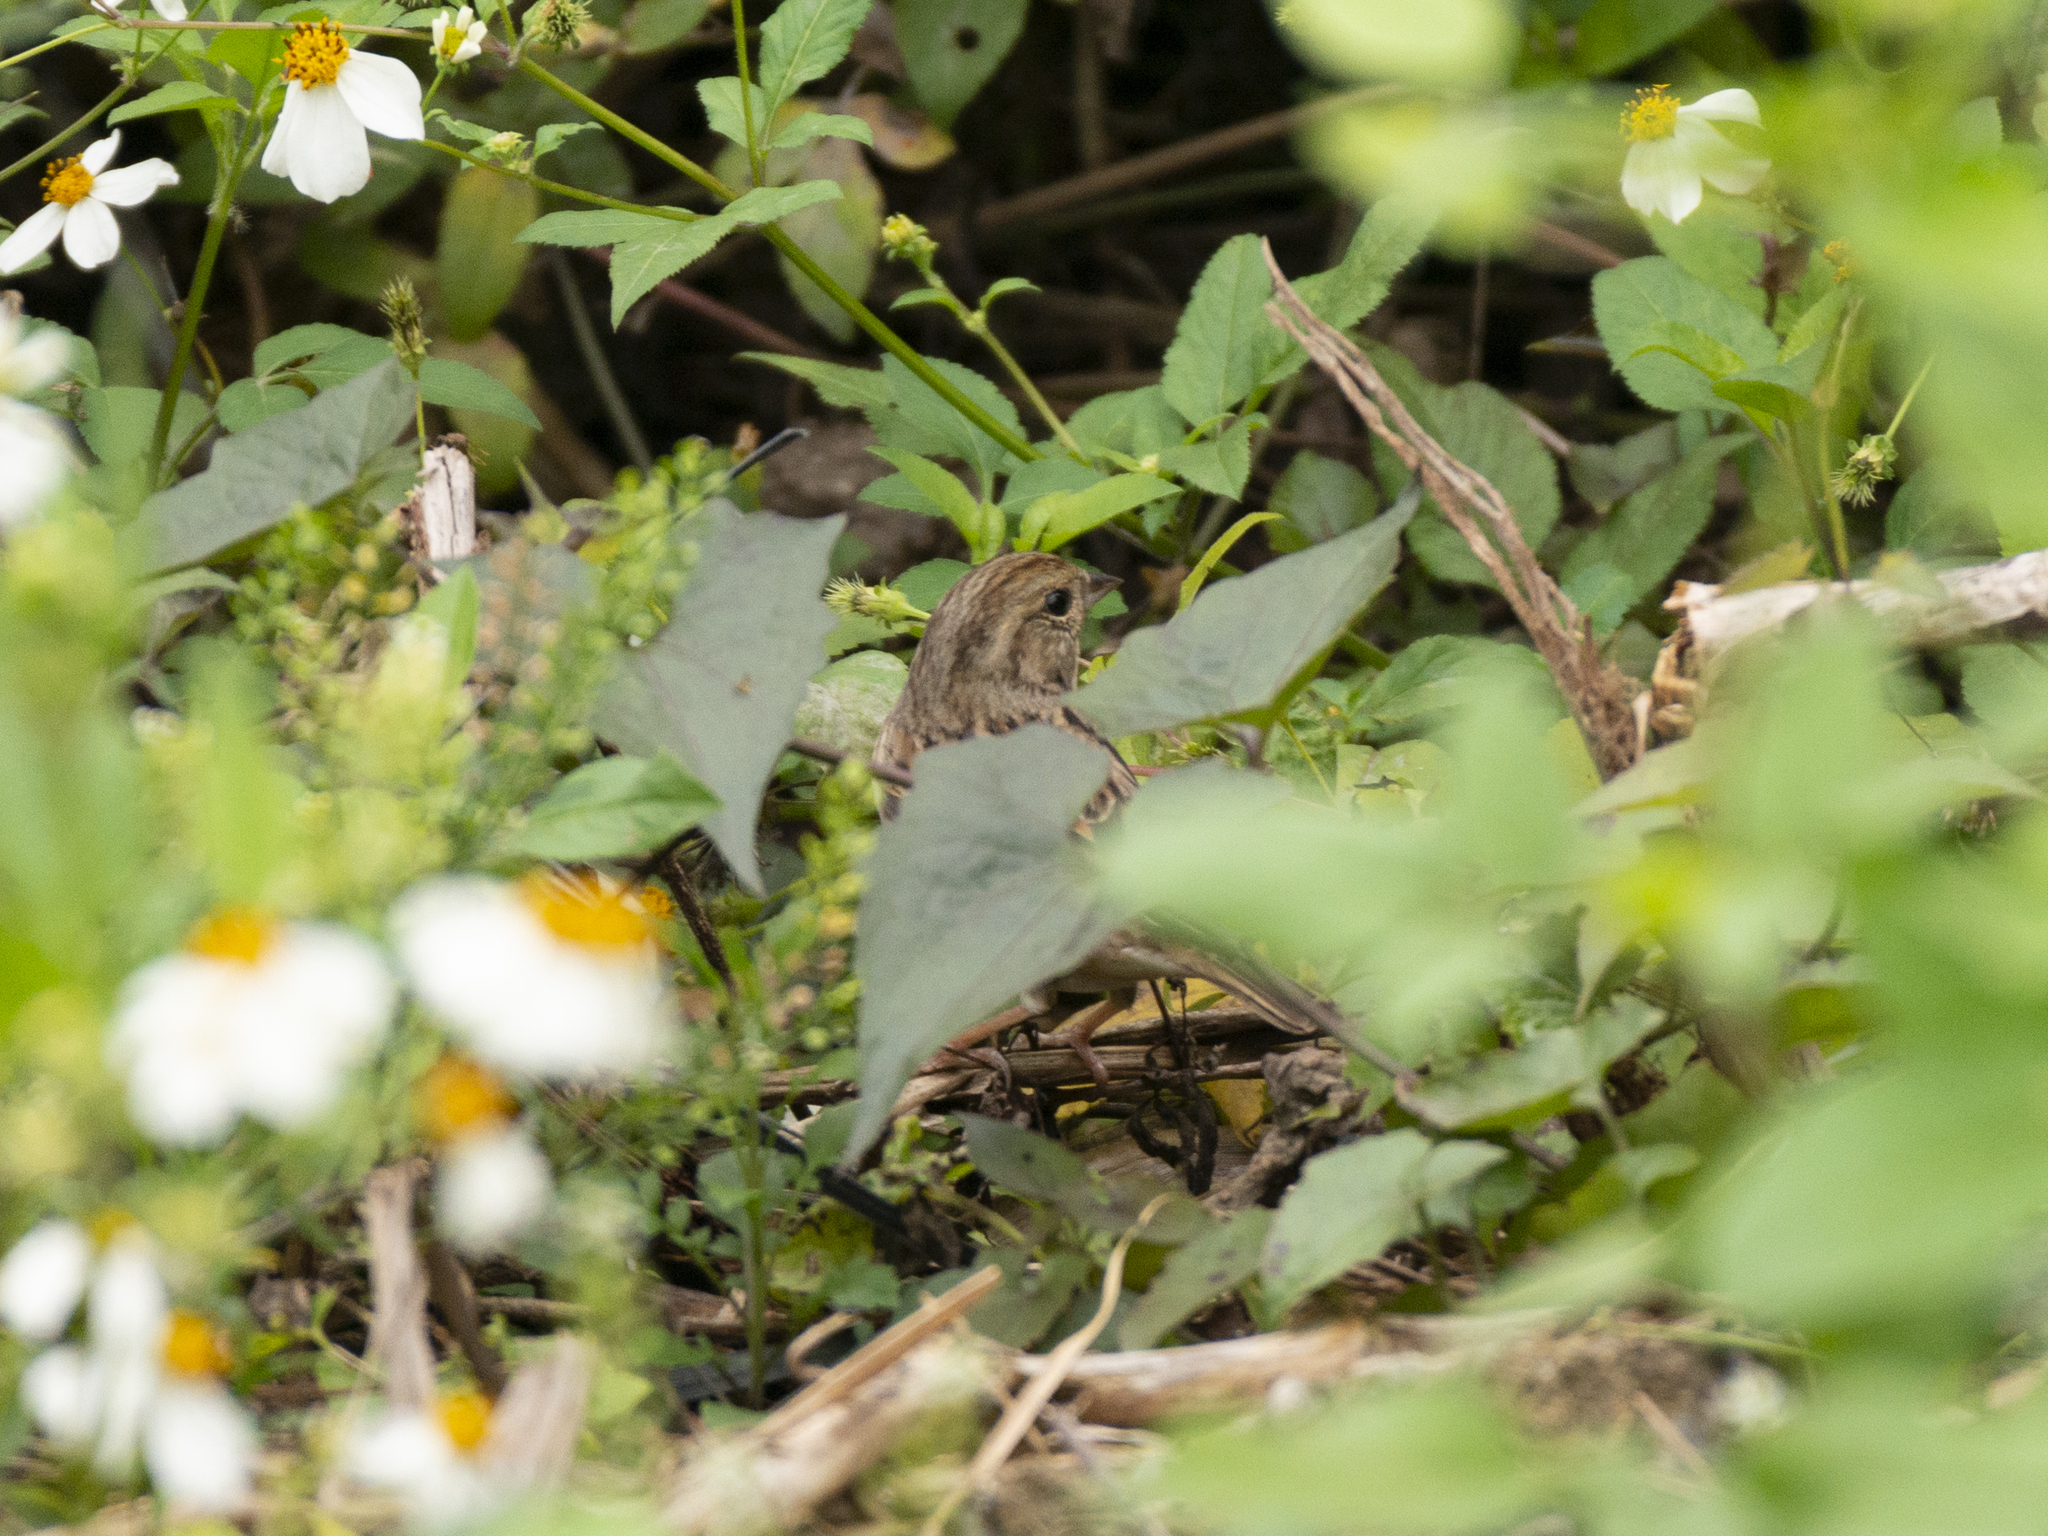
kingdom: Animalia
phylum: Chordata
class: Aves
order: Passeriformes
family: Emberizidae
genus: Emberiza
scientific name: Emberiza spodocephala
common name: Black-faced bunting
